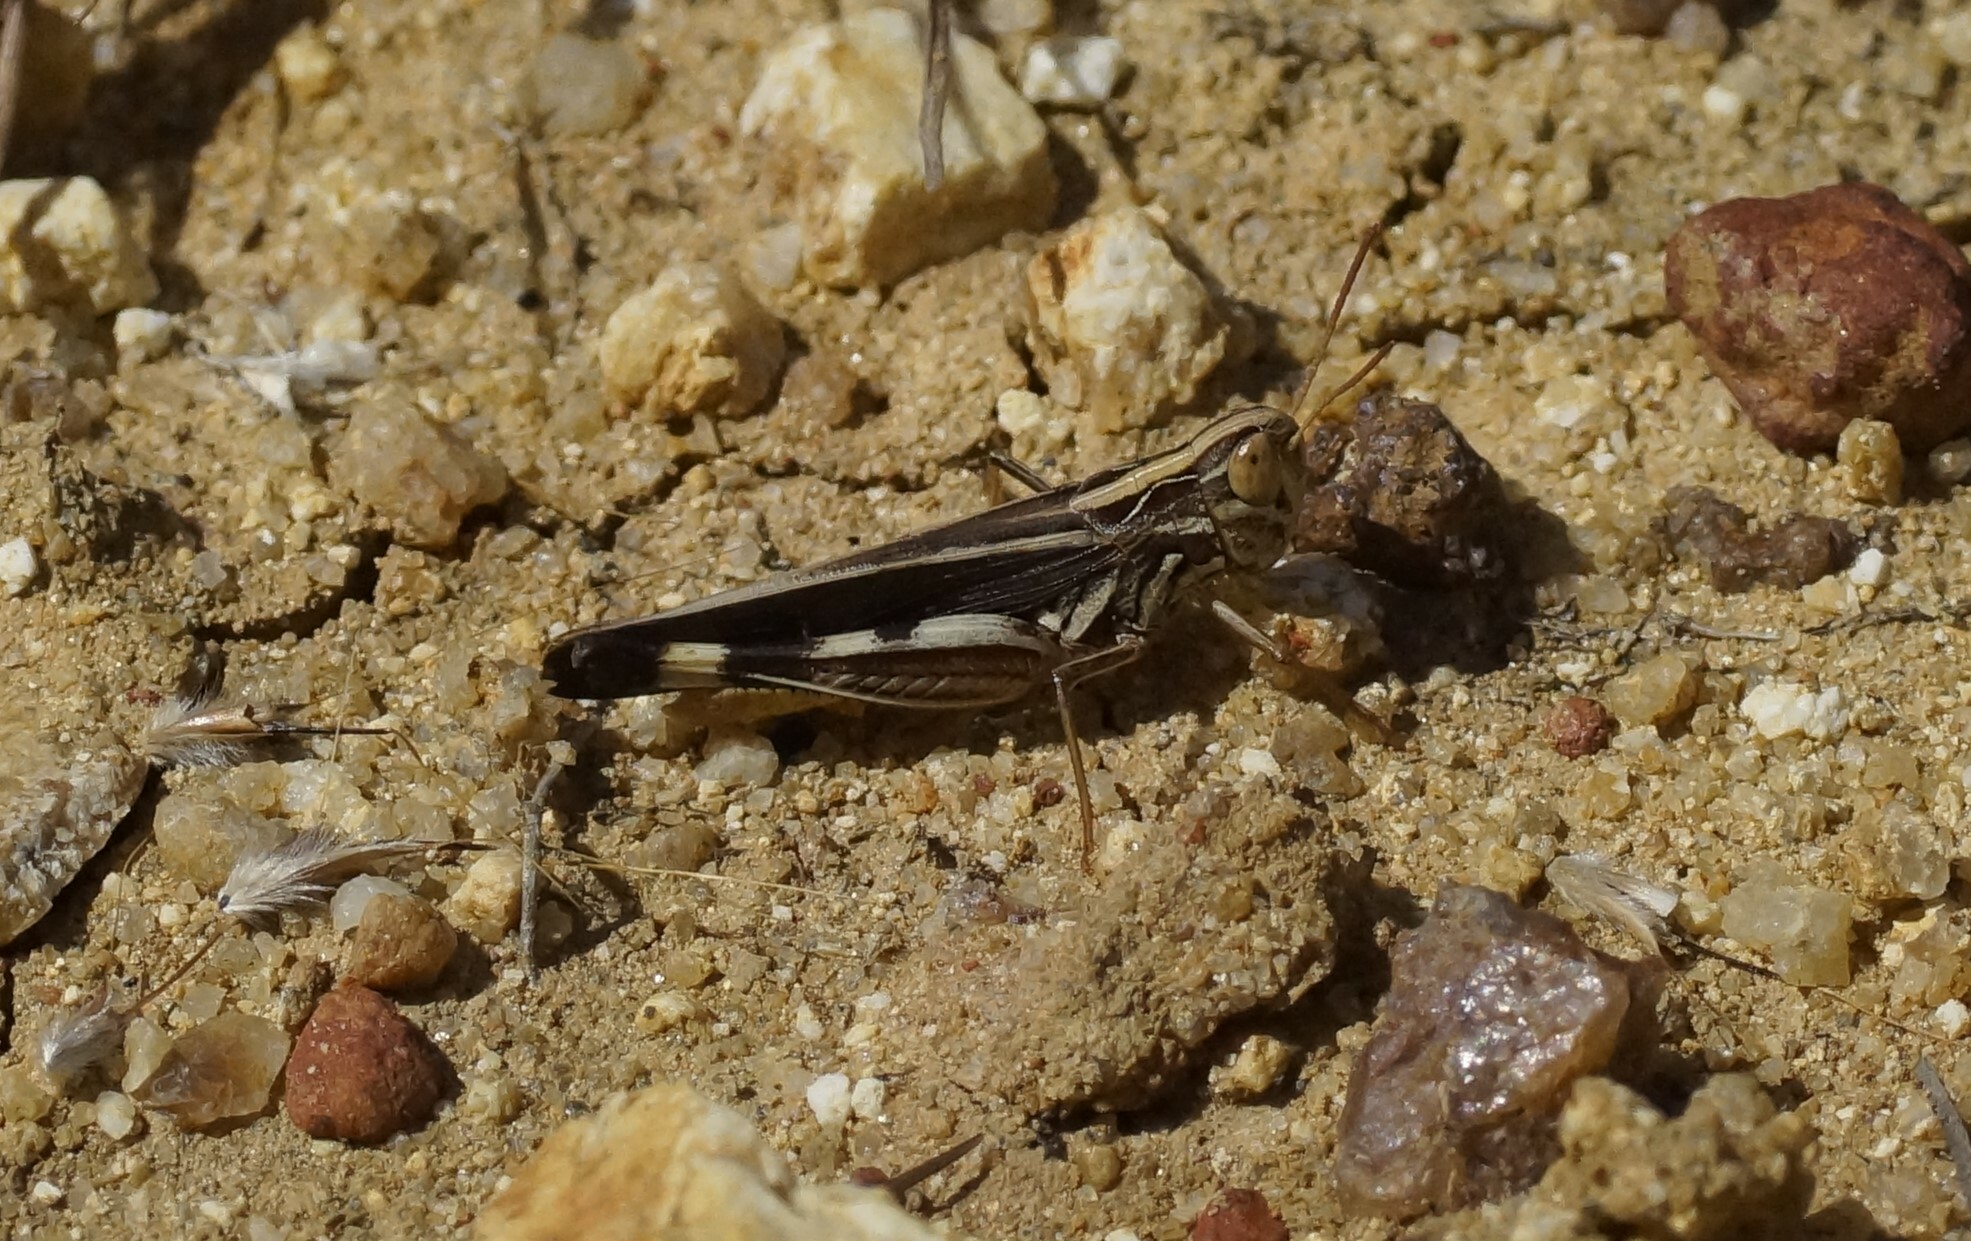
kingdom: Animalia
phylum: Arthropoda
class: Insecta
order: Orthoptera
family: Acrididae
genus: Caledia
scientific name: Caledia captiva
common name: Caledia
